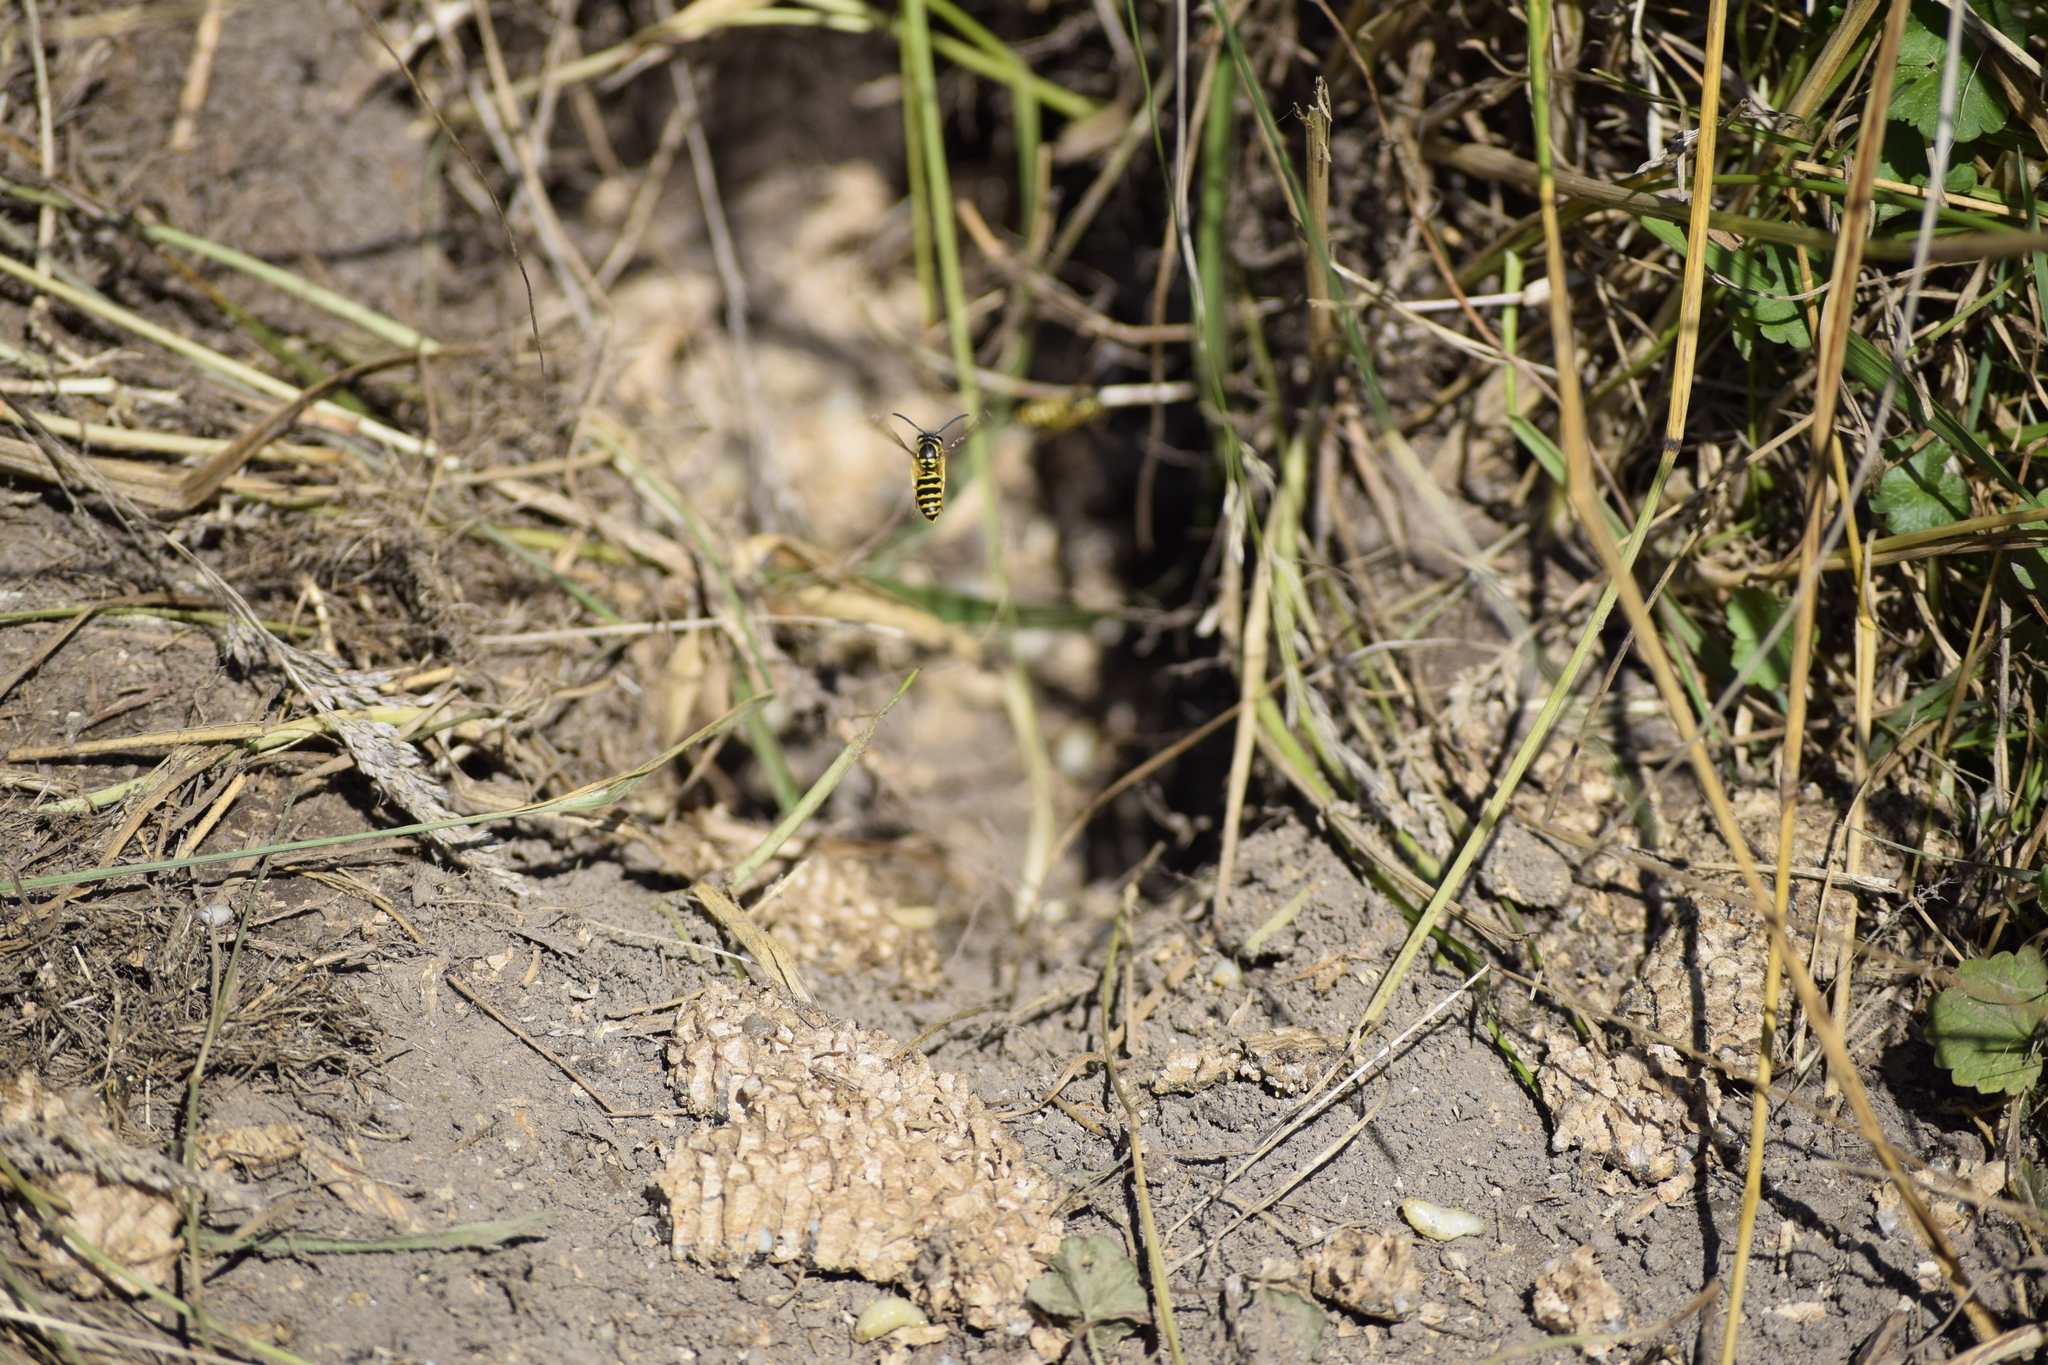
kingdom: Animalia
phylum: Arthropoda
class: Insecta
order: Hymenoptera
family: Vespidae
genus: Vespula
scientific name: Vespula maculifrons
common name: Eastern yellowjacket
